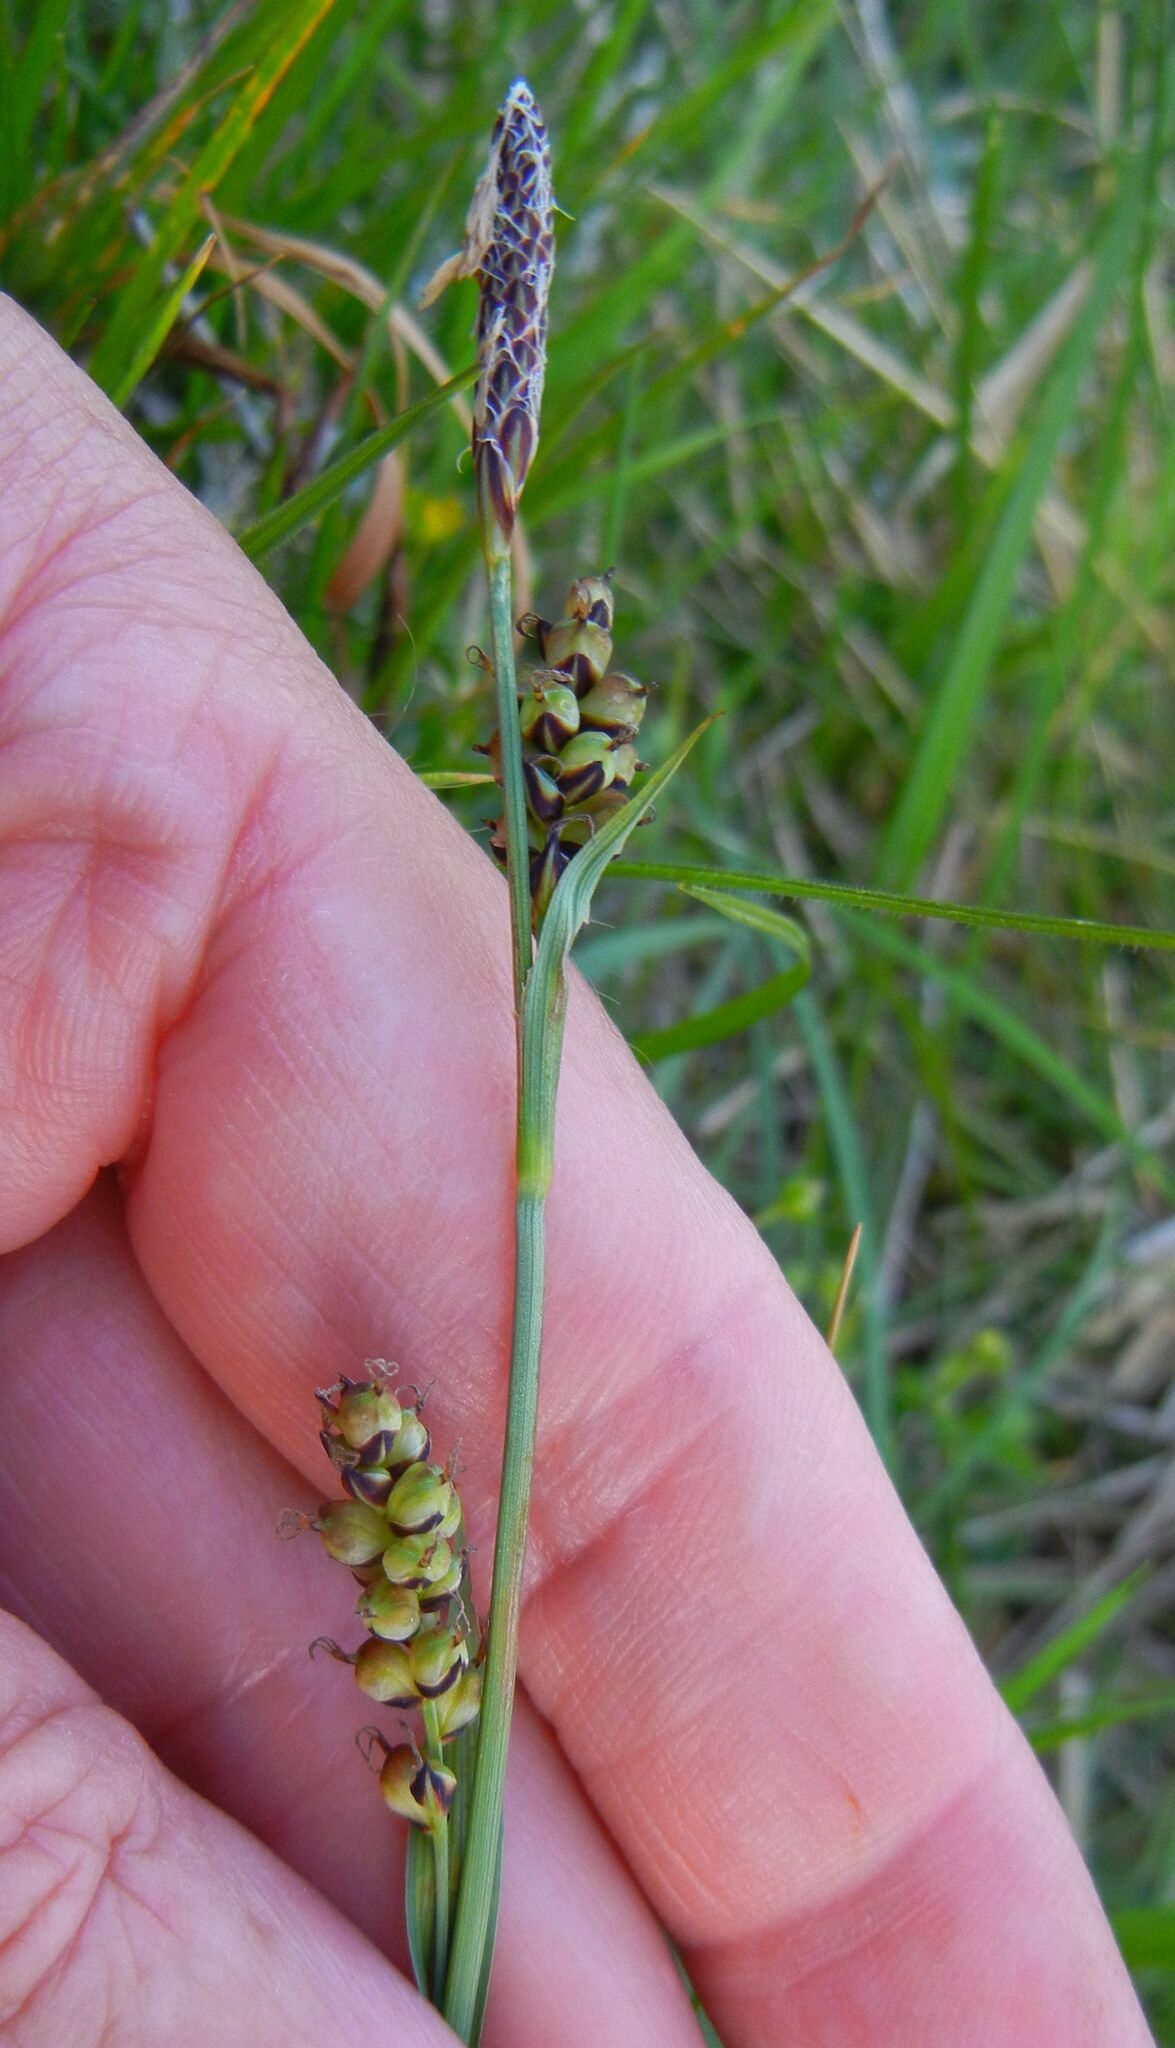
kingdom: Plantae
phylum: Tracheophyta
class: Liliopsida
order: Poales
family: Cyperaceae
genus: Carex
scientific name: Carex panicea
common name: Carnation sedge
